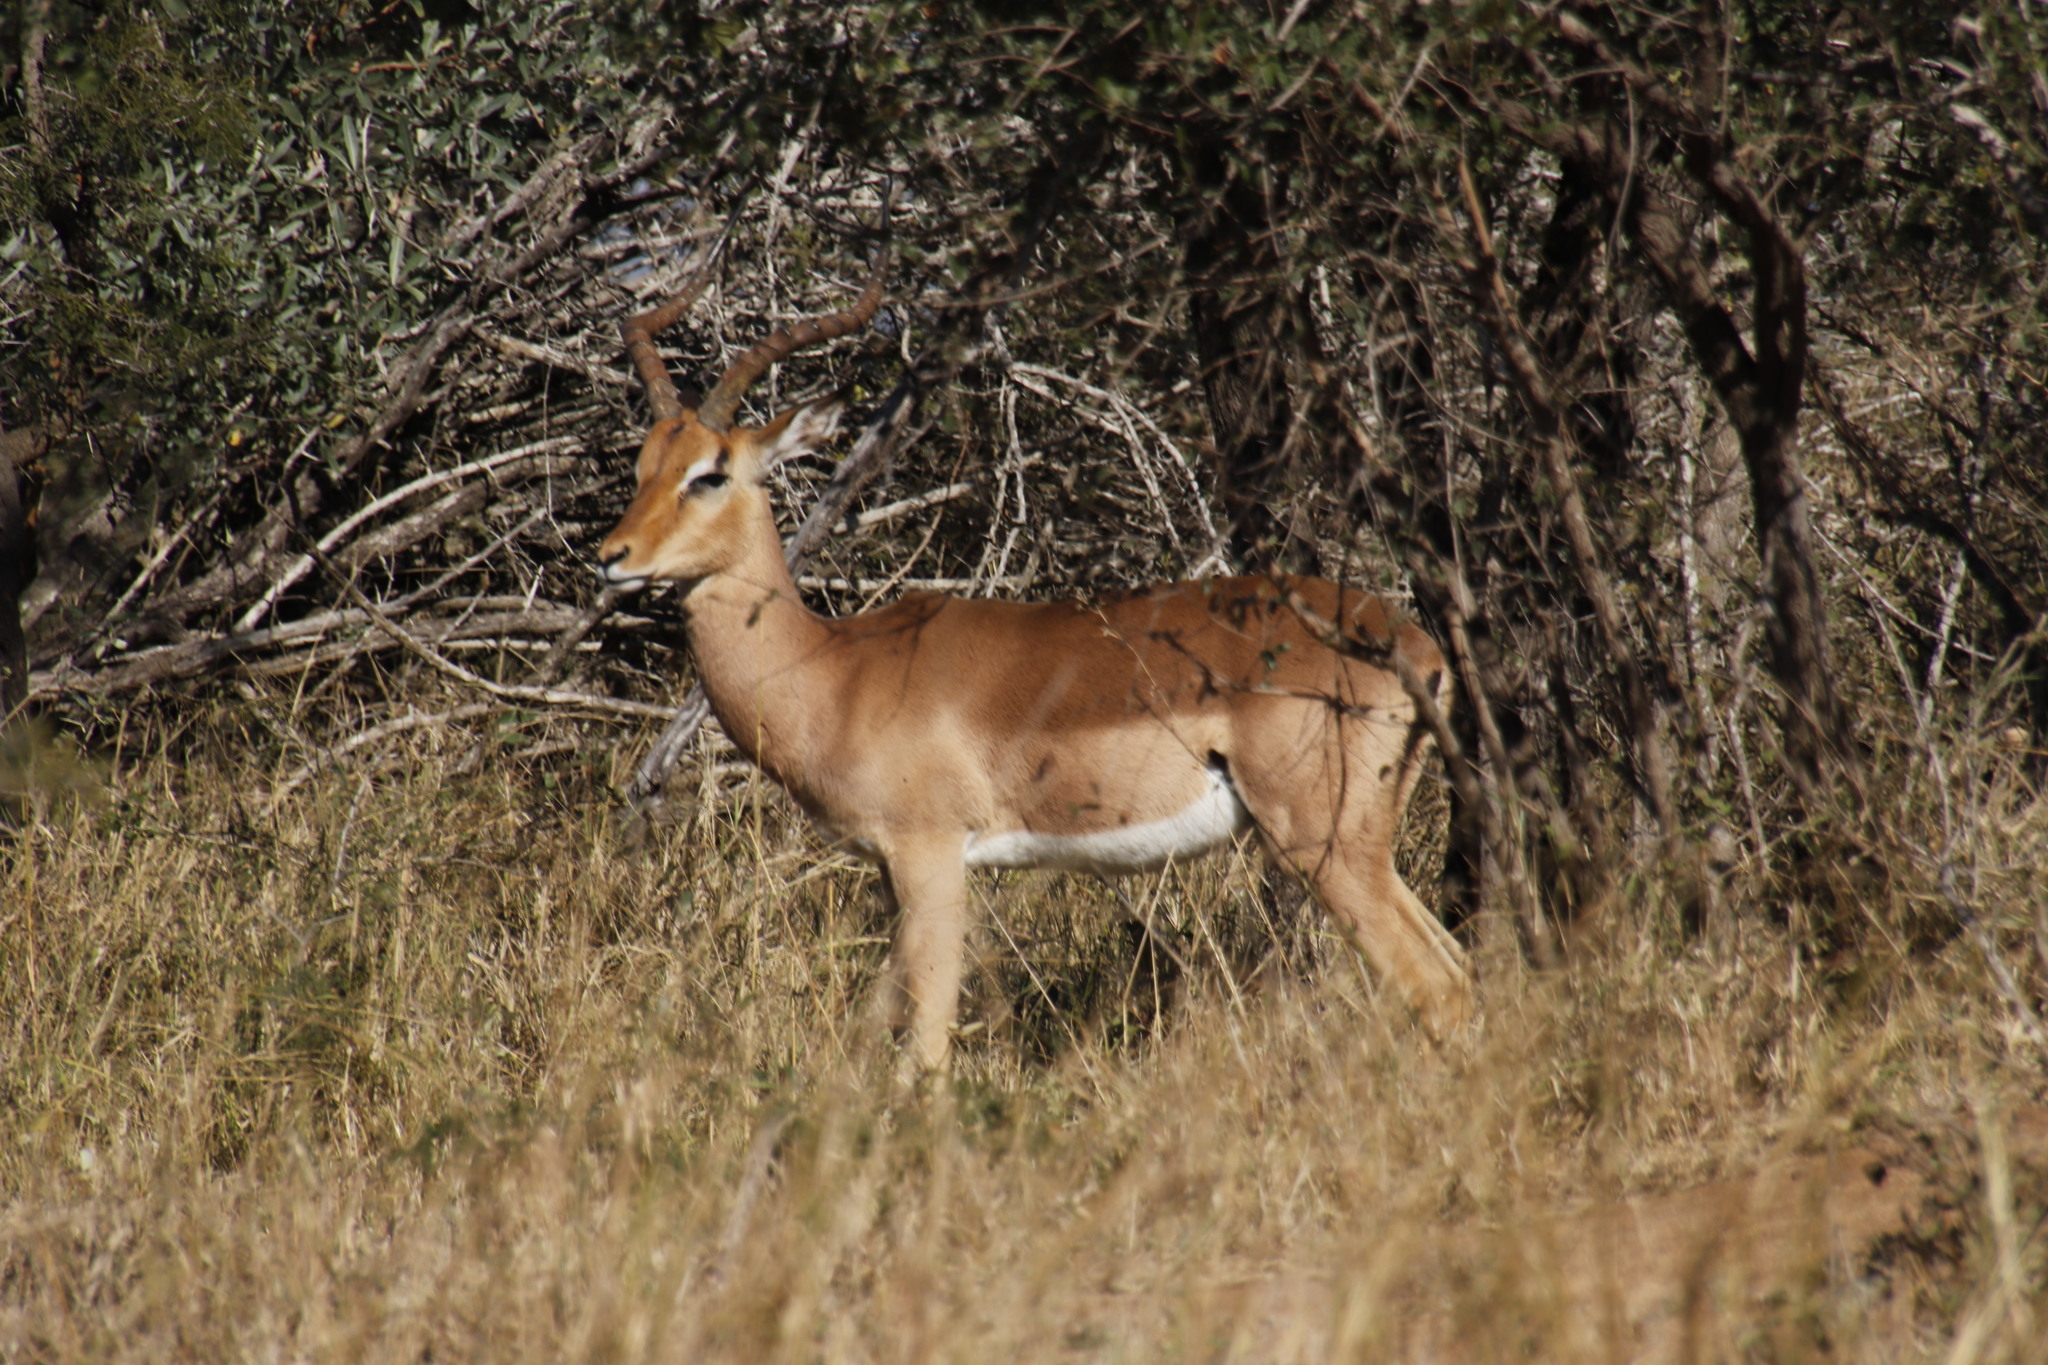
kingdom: Animalia
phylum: Chordata
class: Mammalia
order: Artiodactyla
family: Bovidae
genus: Aepyceros
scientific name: Aepyceros melampus
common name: Impala
